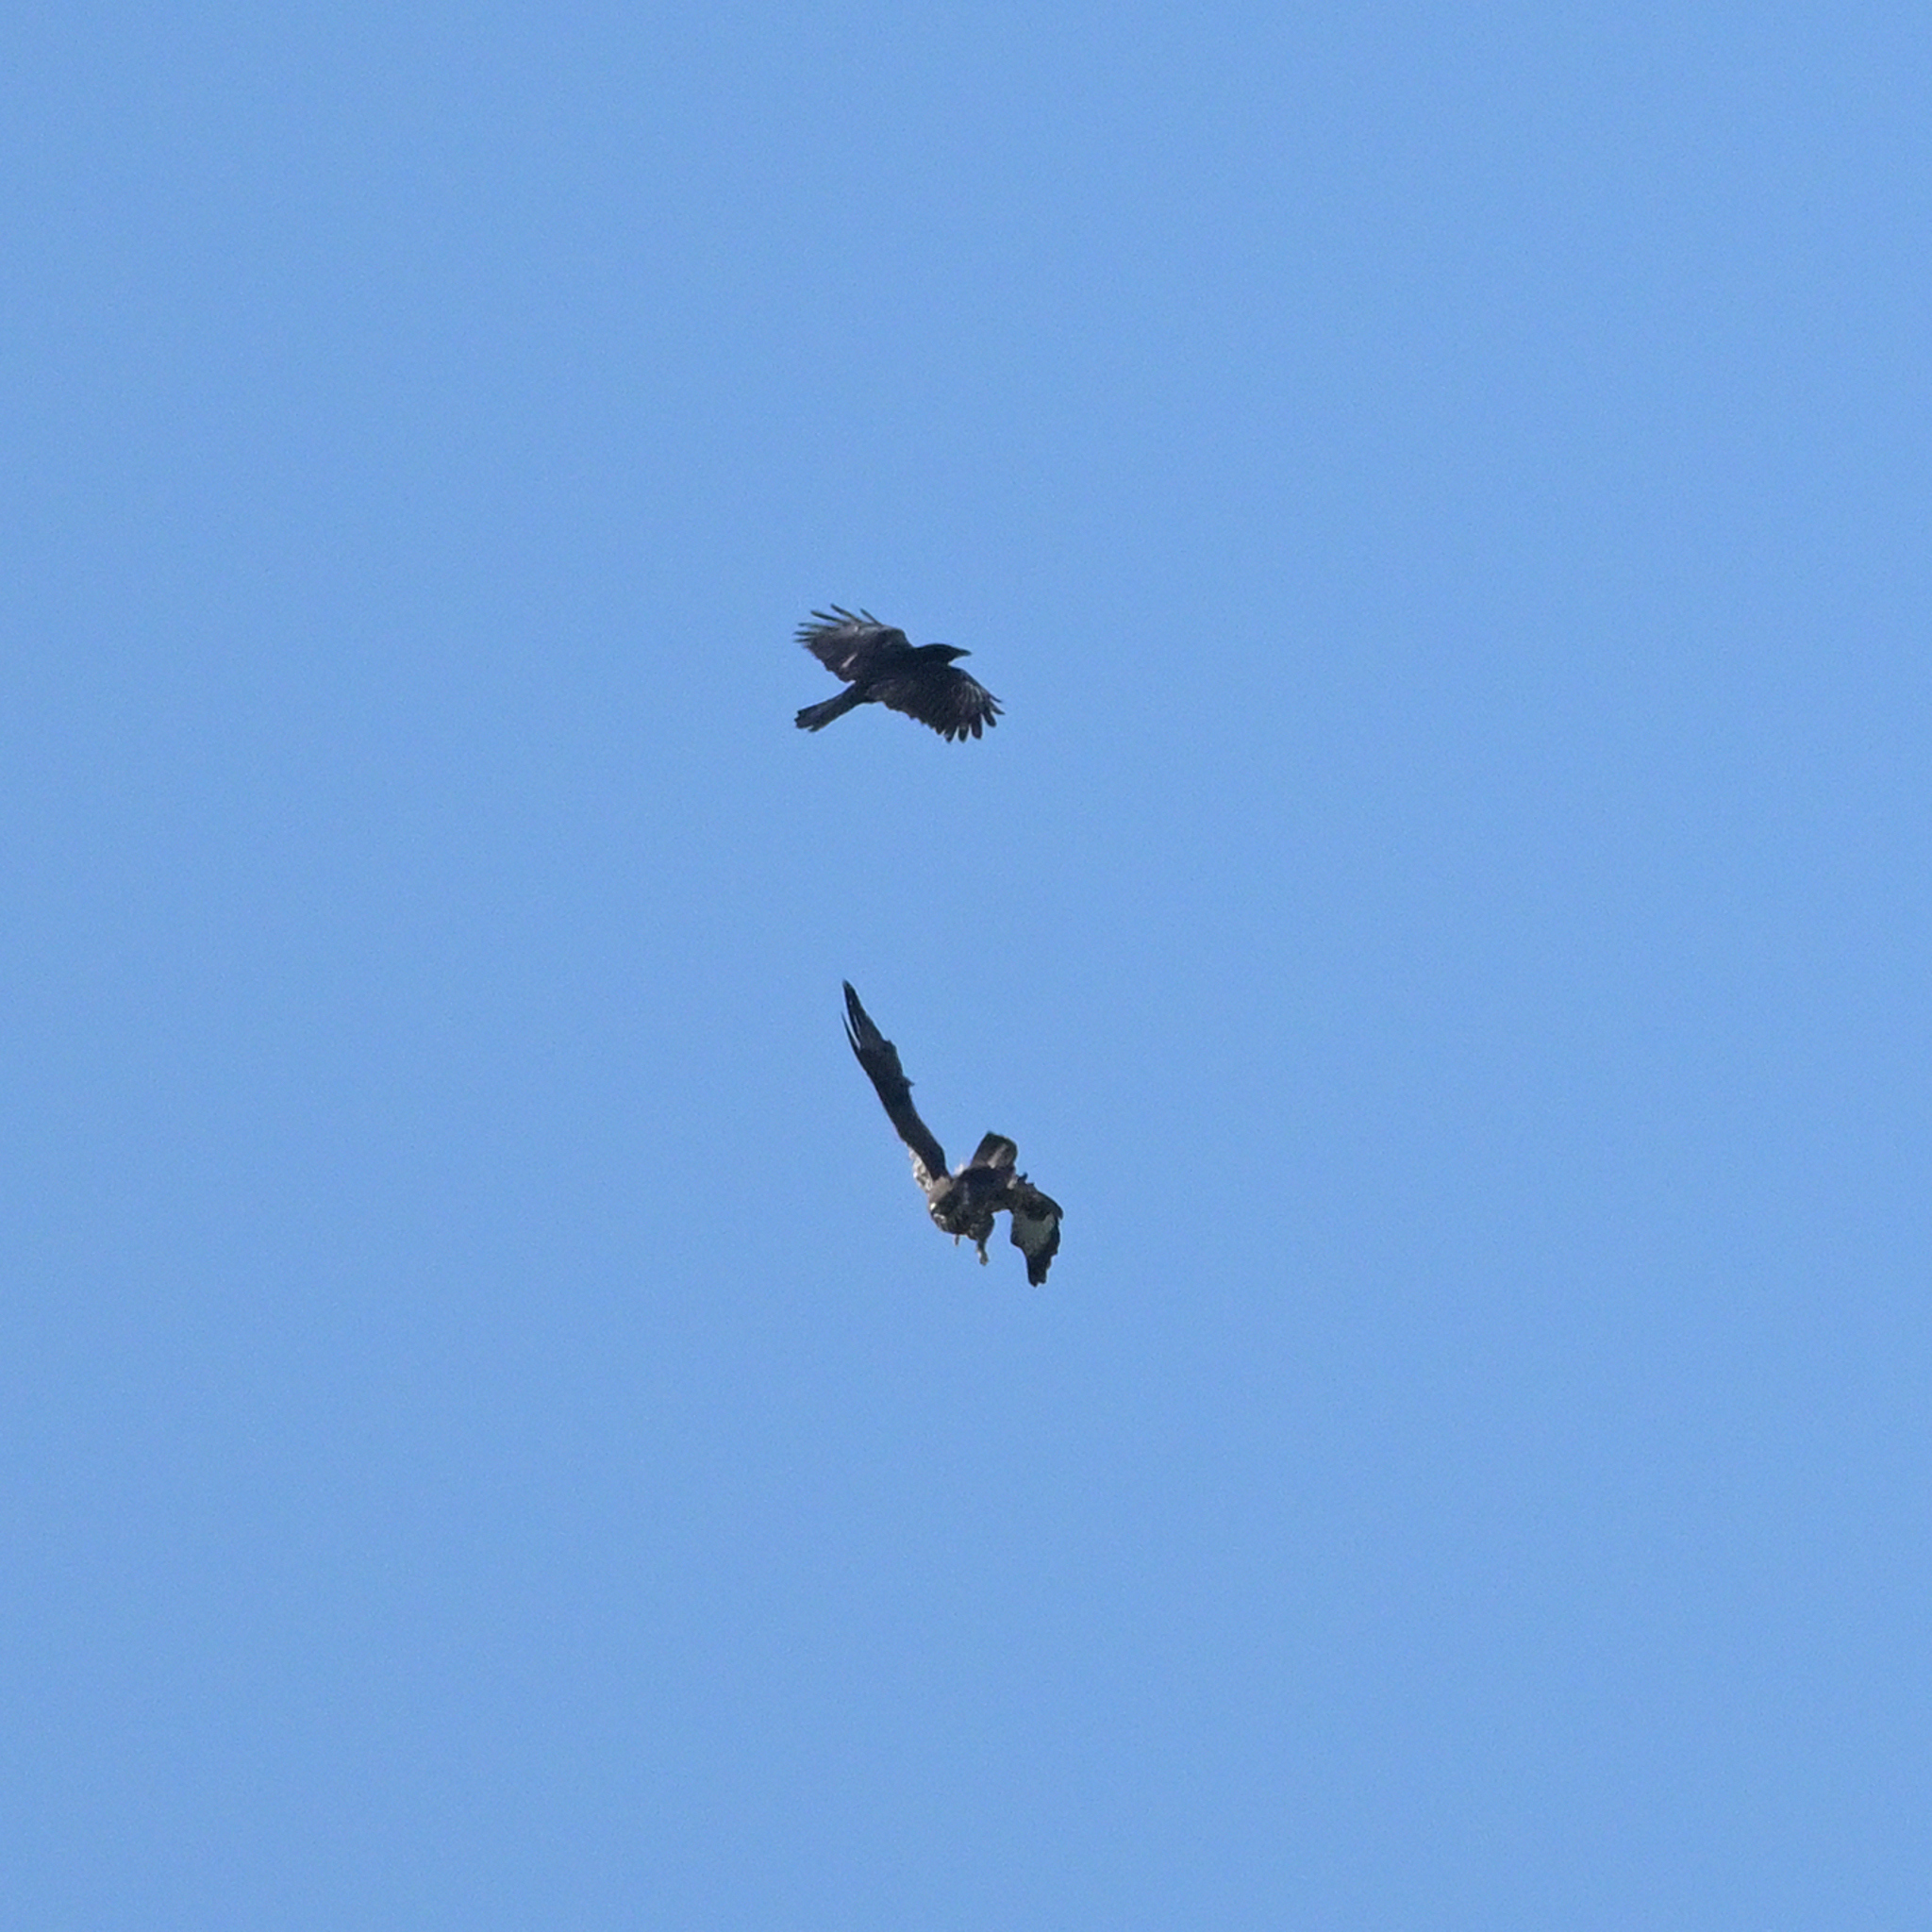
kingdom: Animalia
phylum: Chordata
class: Aves
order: Accipitriformes
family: Accipitridae
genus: Buteo
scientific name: Buteo buteo
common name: Common buzzard
